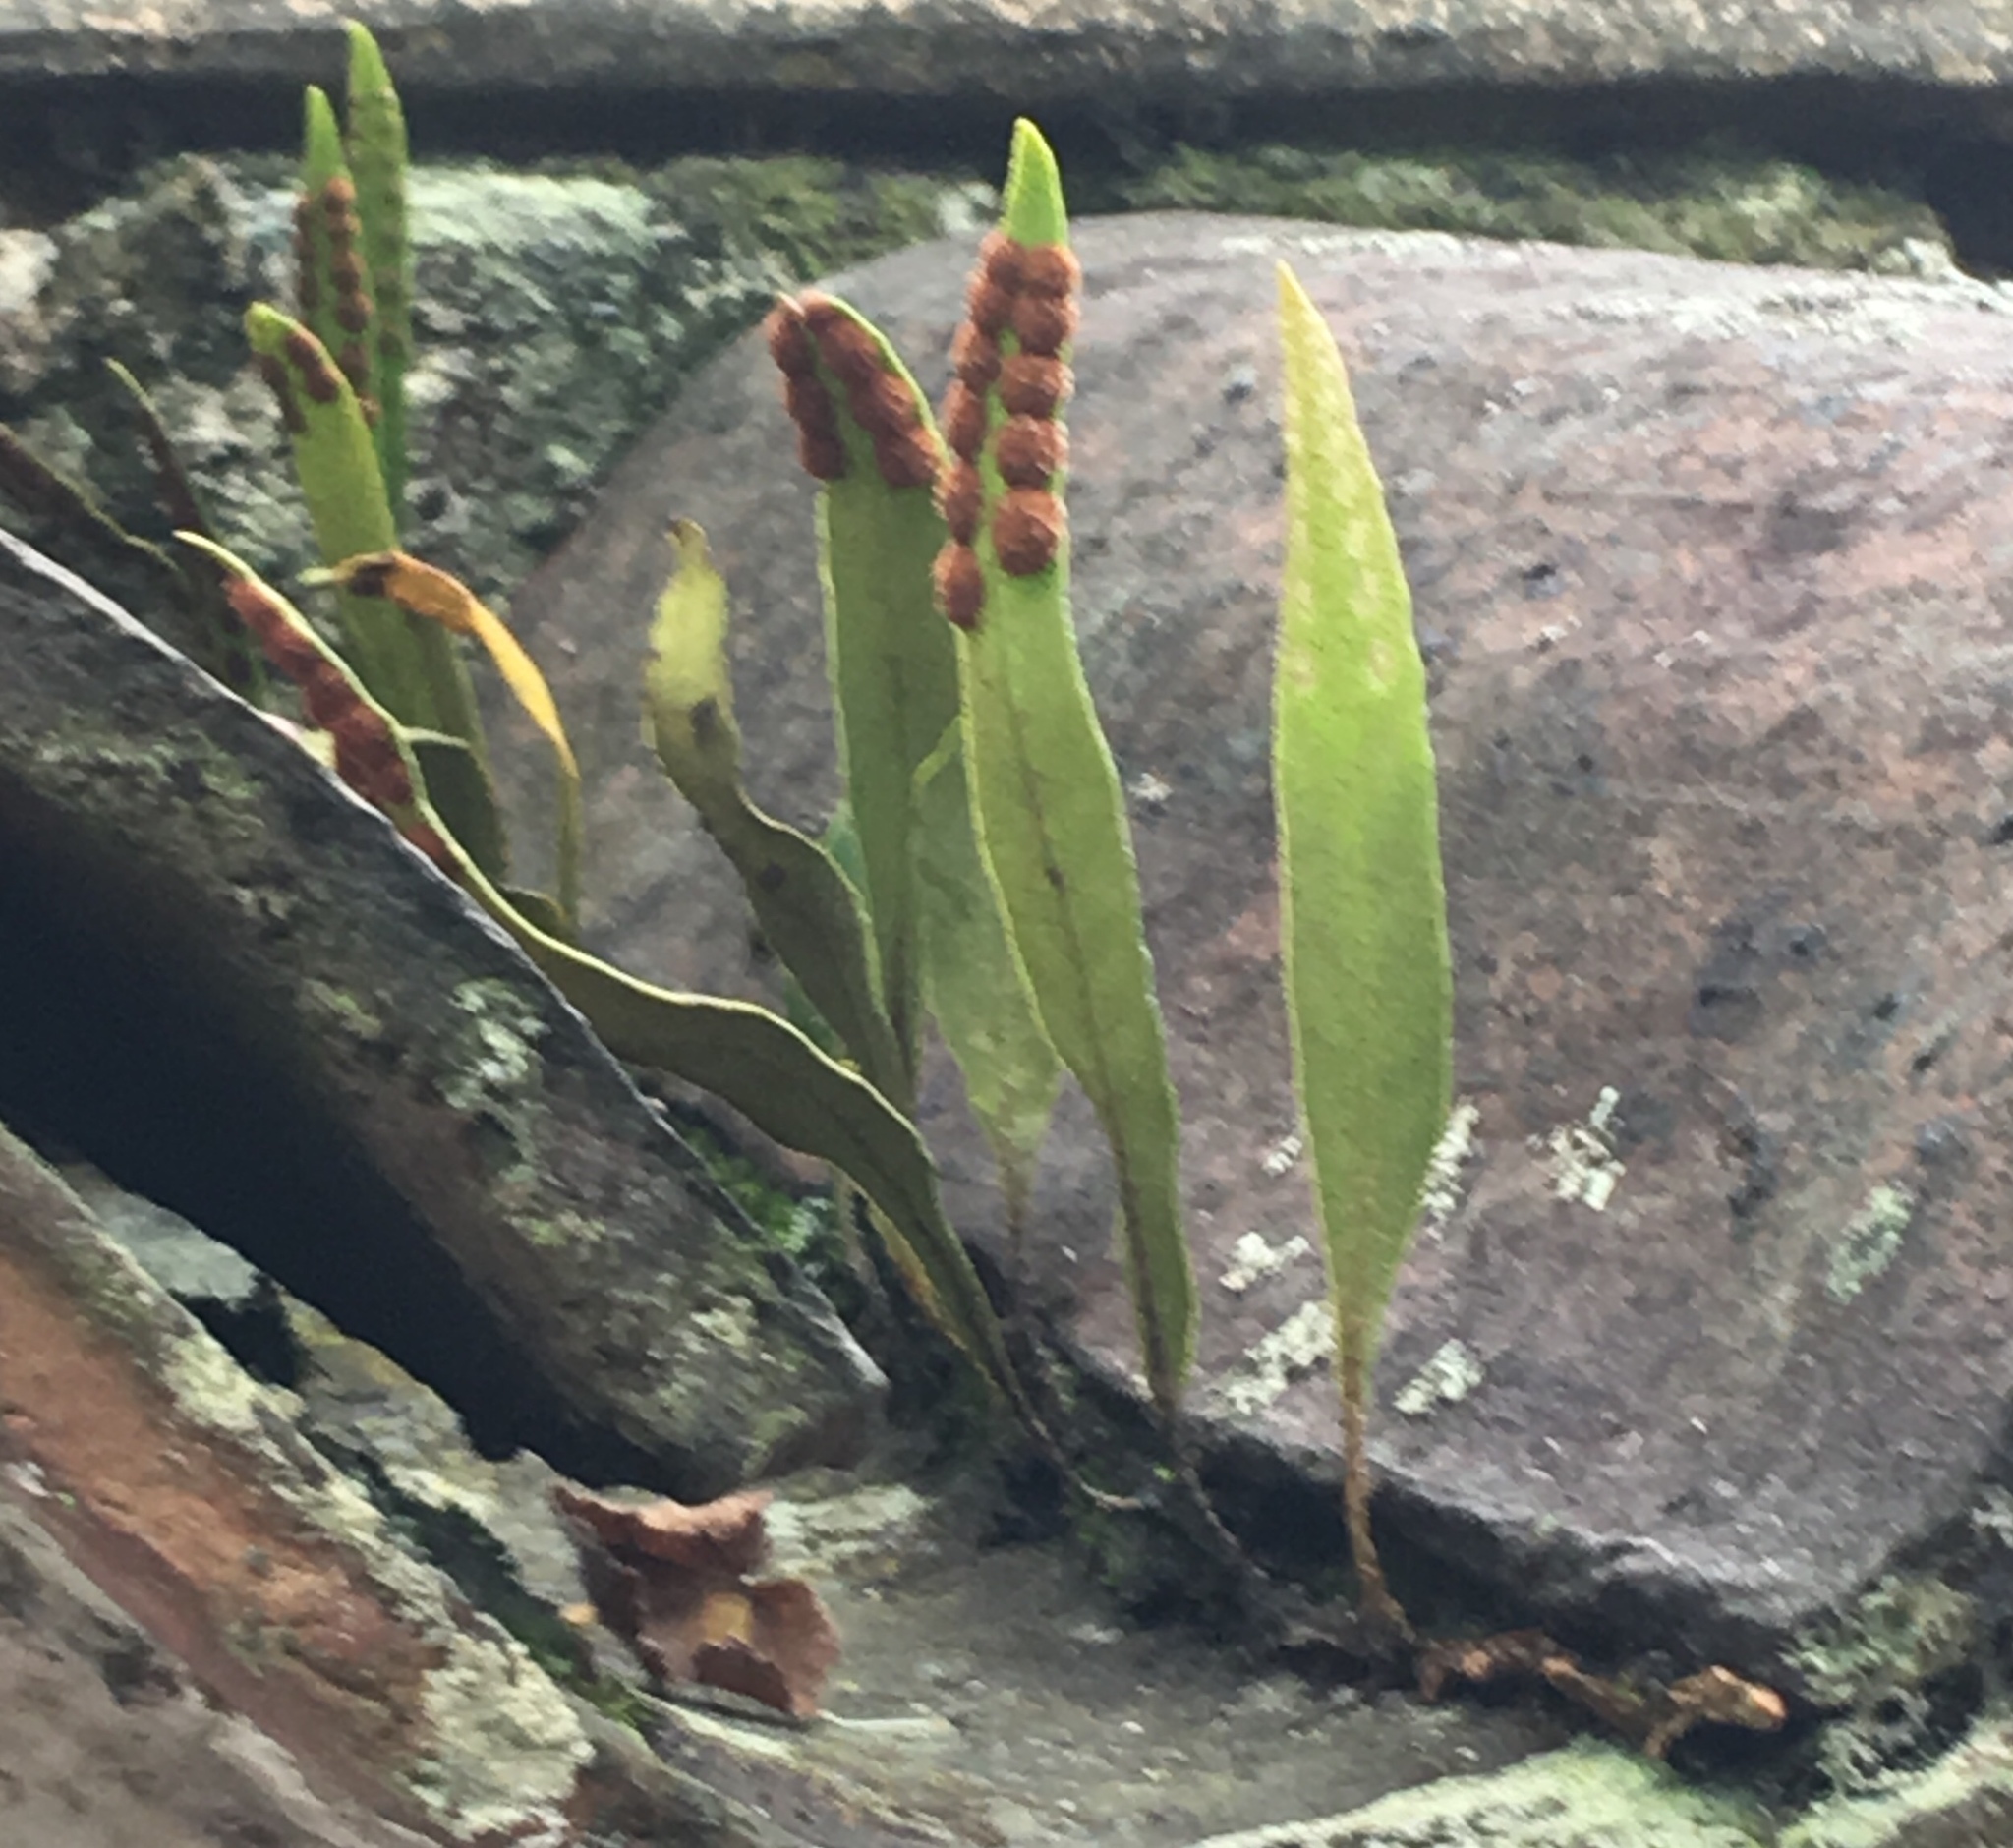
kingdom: Plantae
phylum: Tracheophyta
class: Polypodiopsida
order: Polypodiales
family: Polypodiaceae
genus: Pleopeltis
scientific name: Pleopeltis macrocarpa
